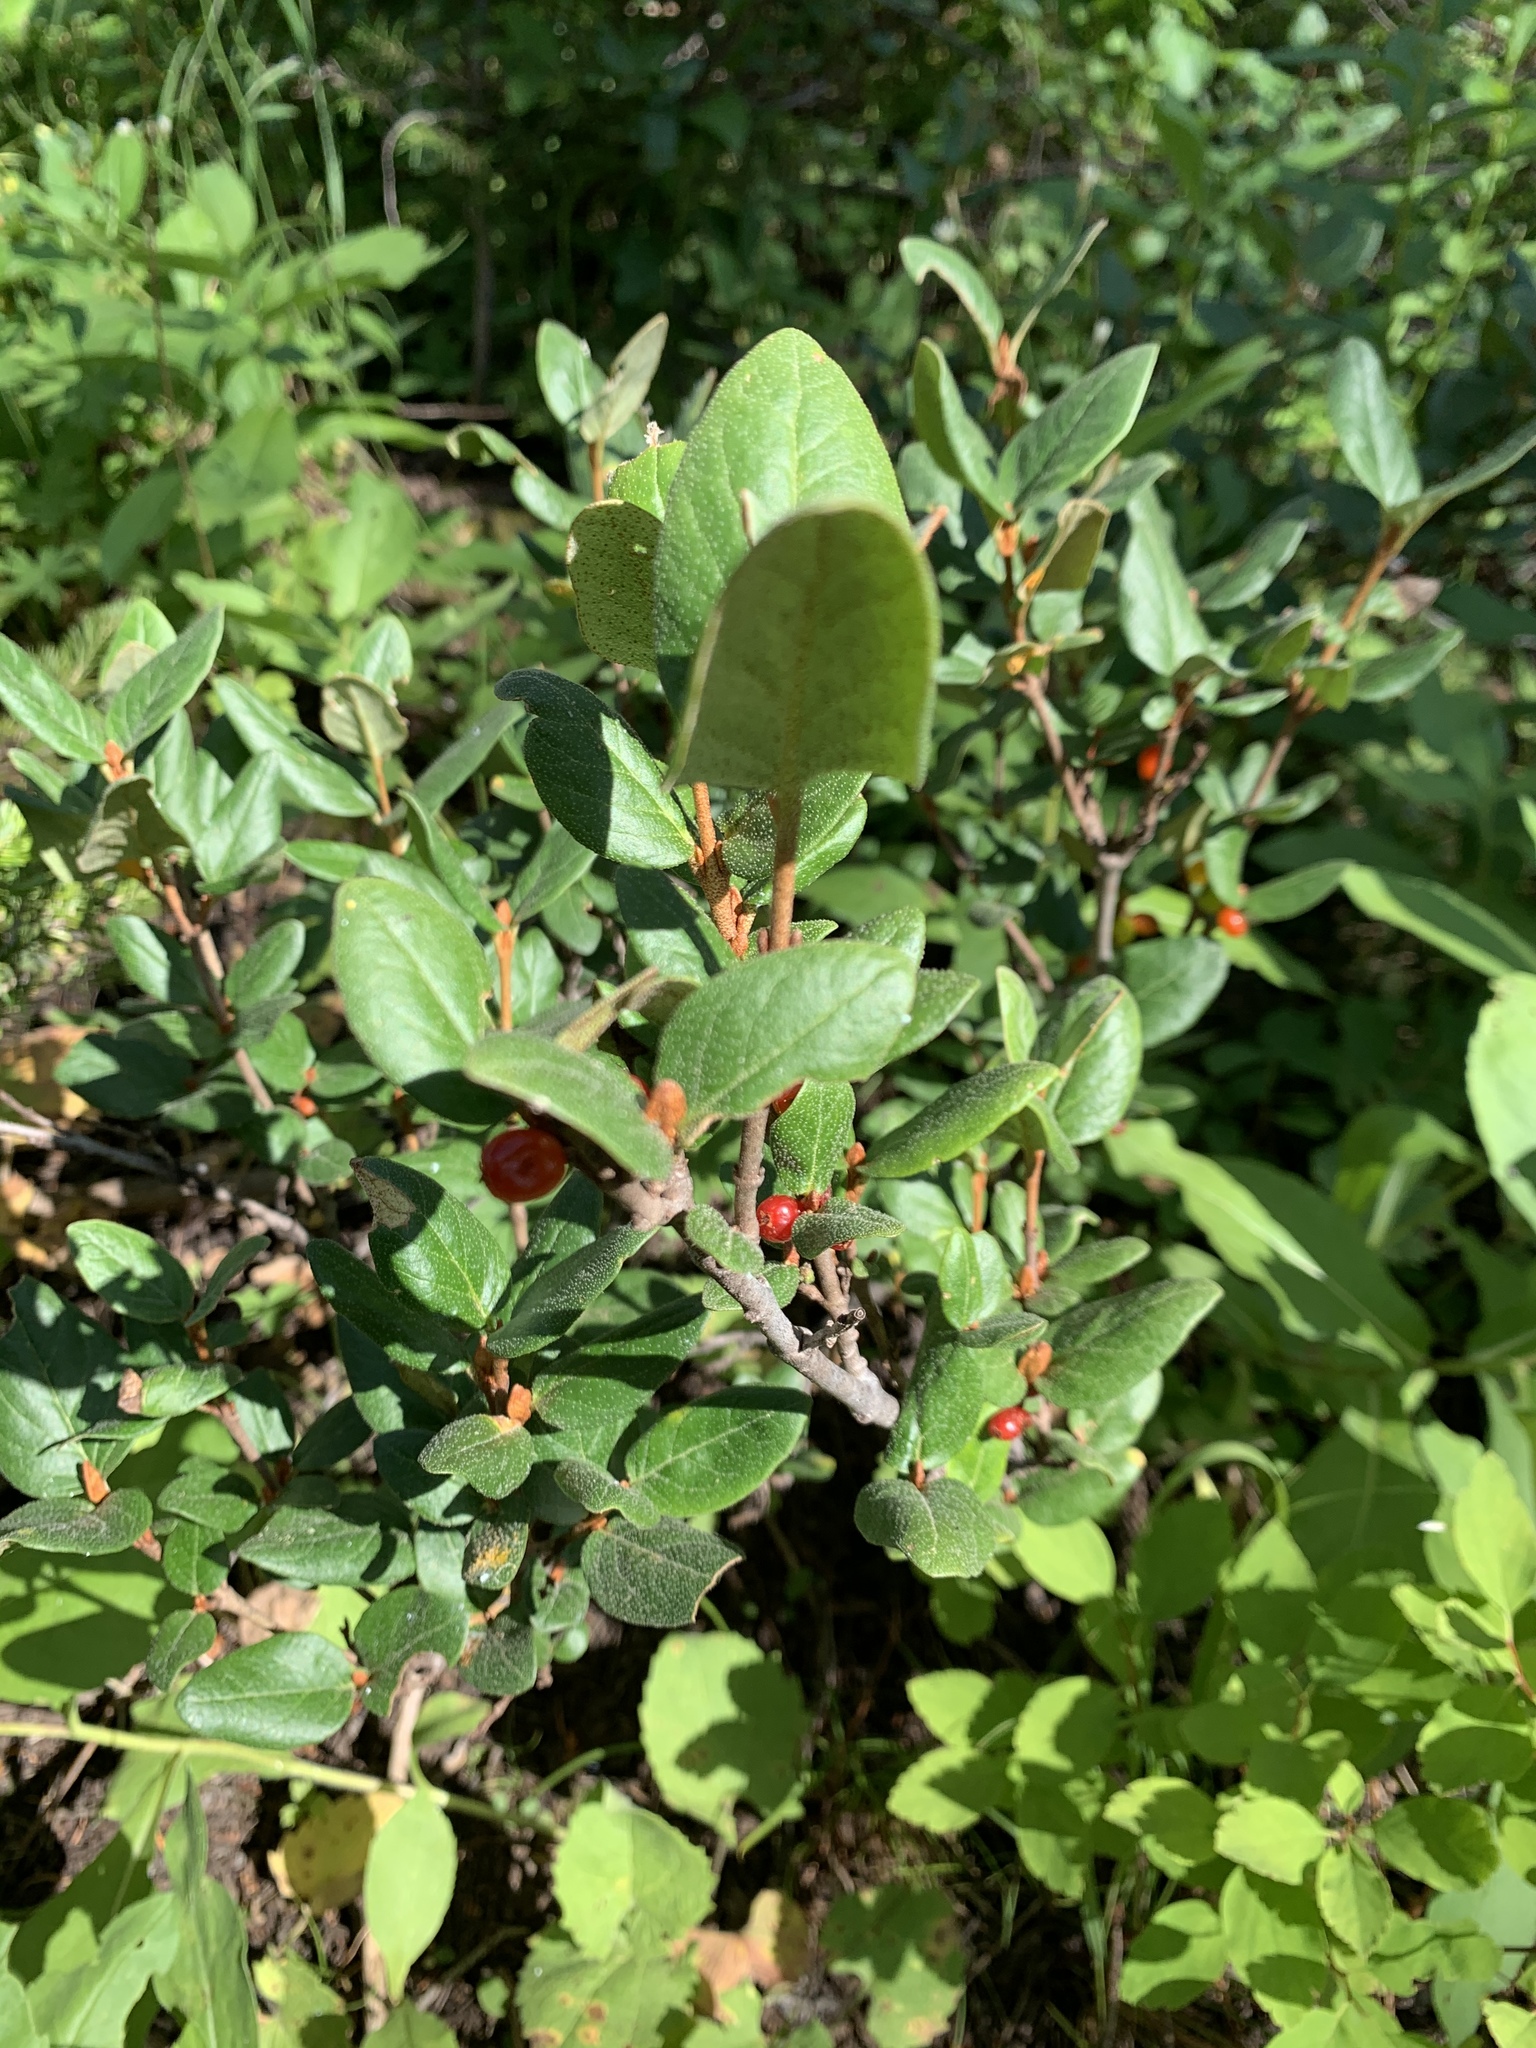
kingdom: Plantae
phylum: Tracheophyta
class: Magnoliopsida
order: Rosales
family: Elaeagnaceae
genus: Shepherdia
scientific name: Shepherdia canadensis
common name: Soapberry
